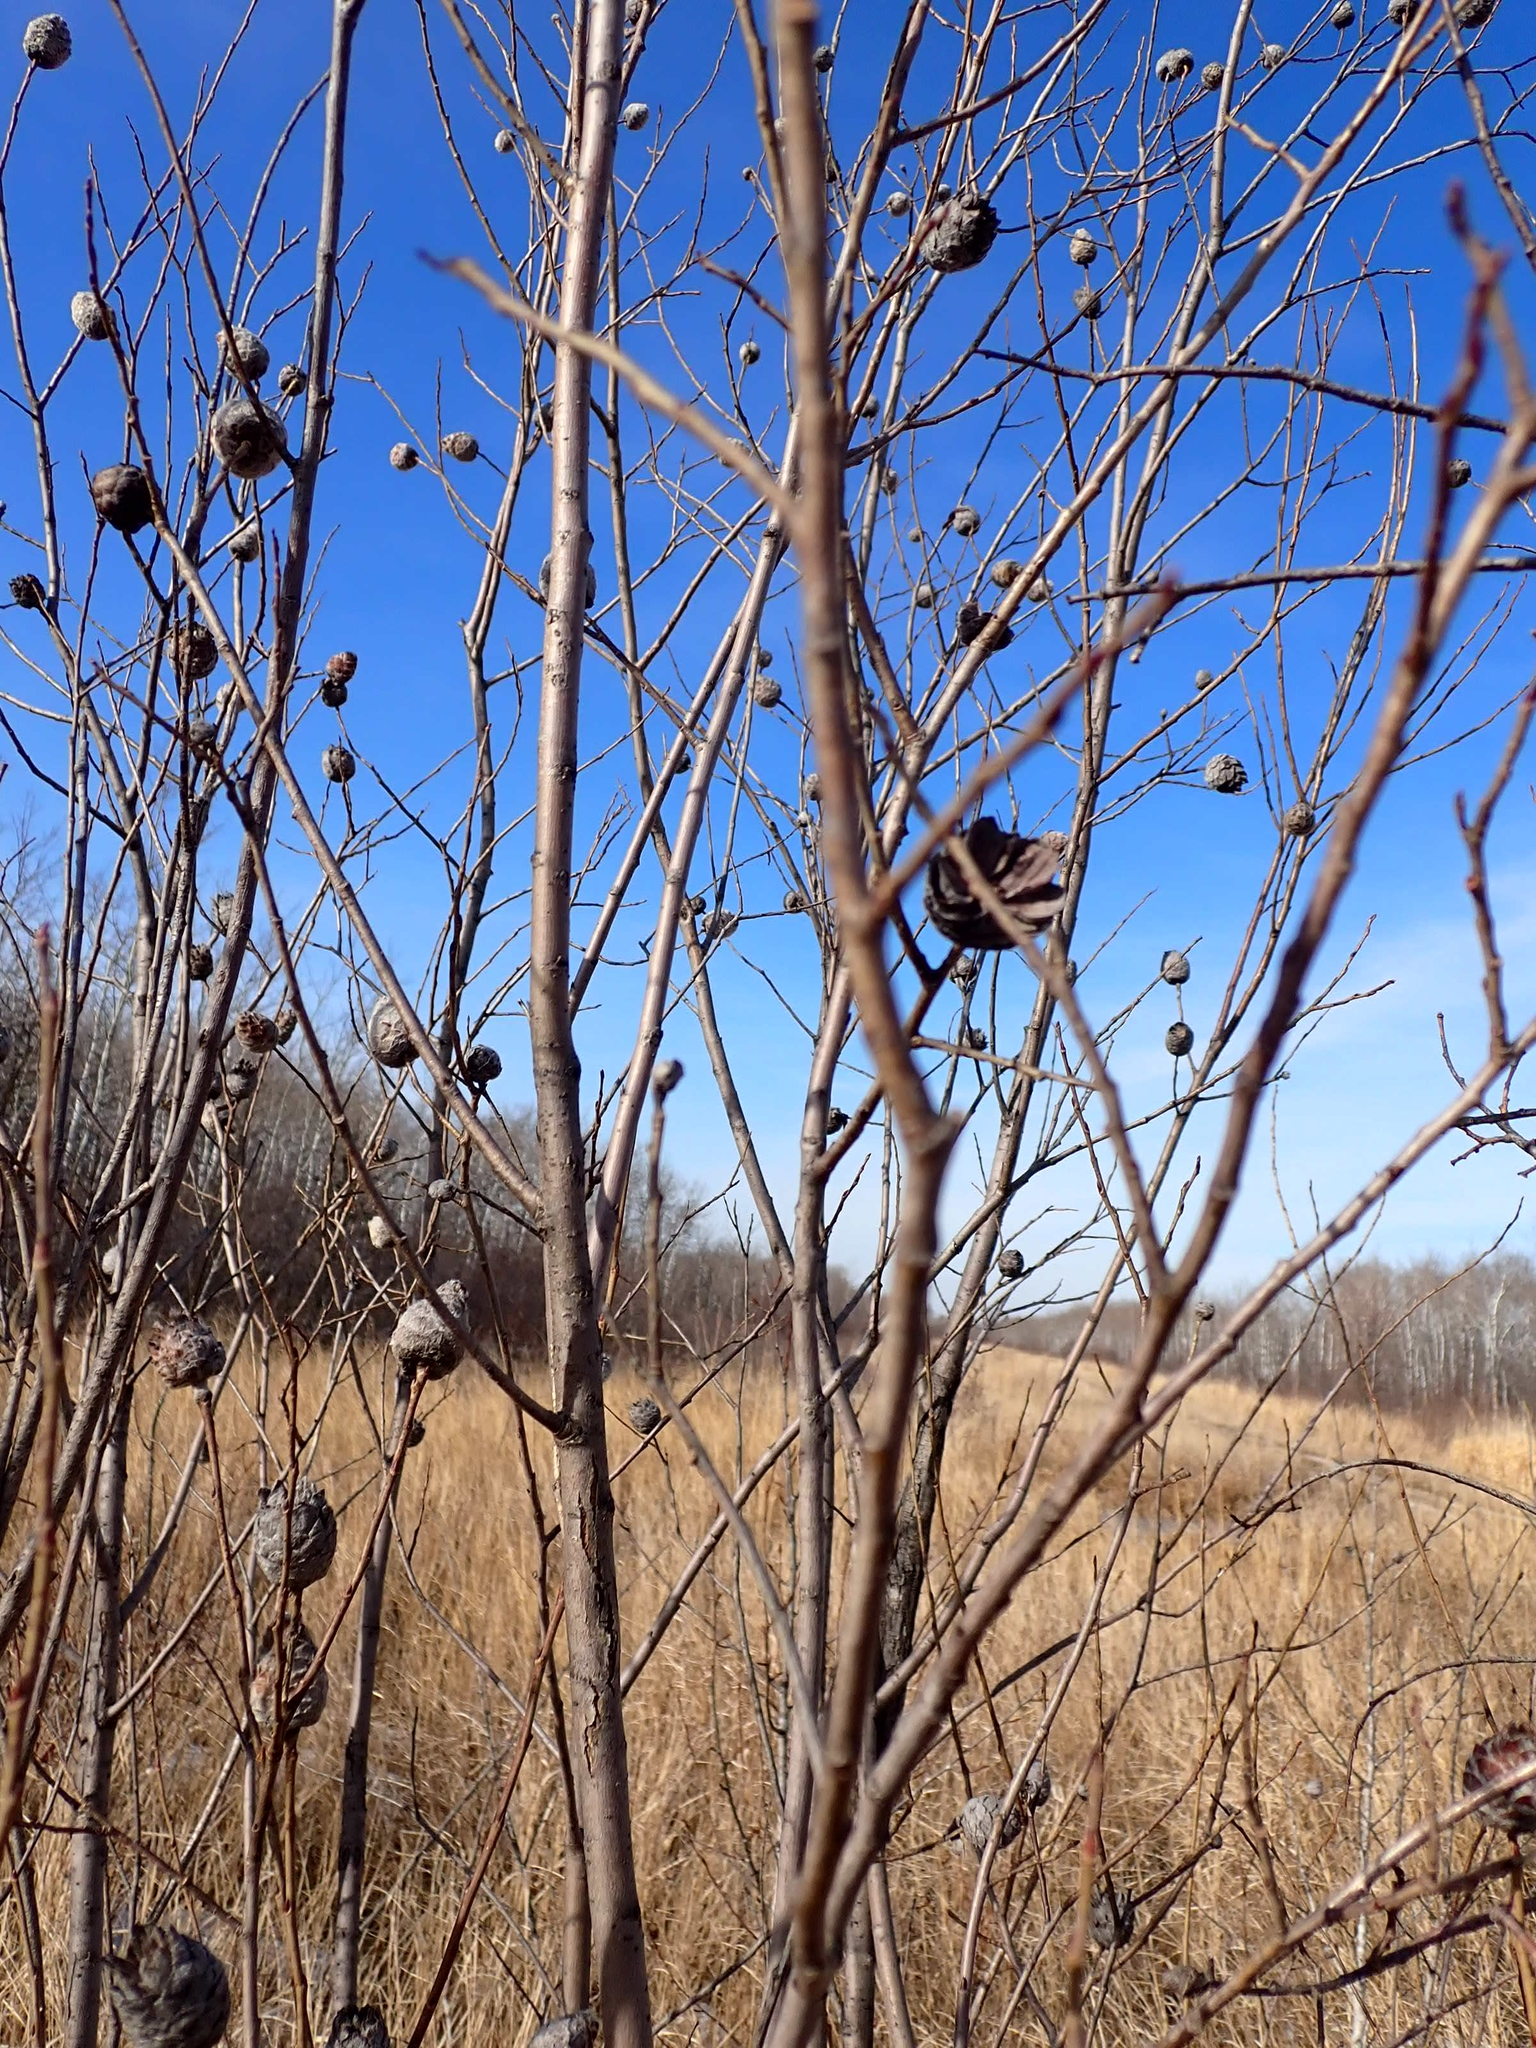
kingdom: Animalia
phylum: Arthropoda
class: Insecta
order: Diptera
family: Cecidomyiidae
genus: Rabdophaga
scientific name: Rabdophaga strobiloides
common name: Willow pinecone gall midge
